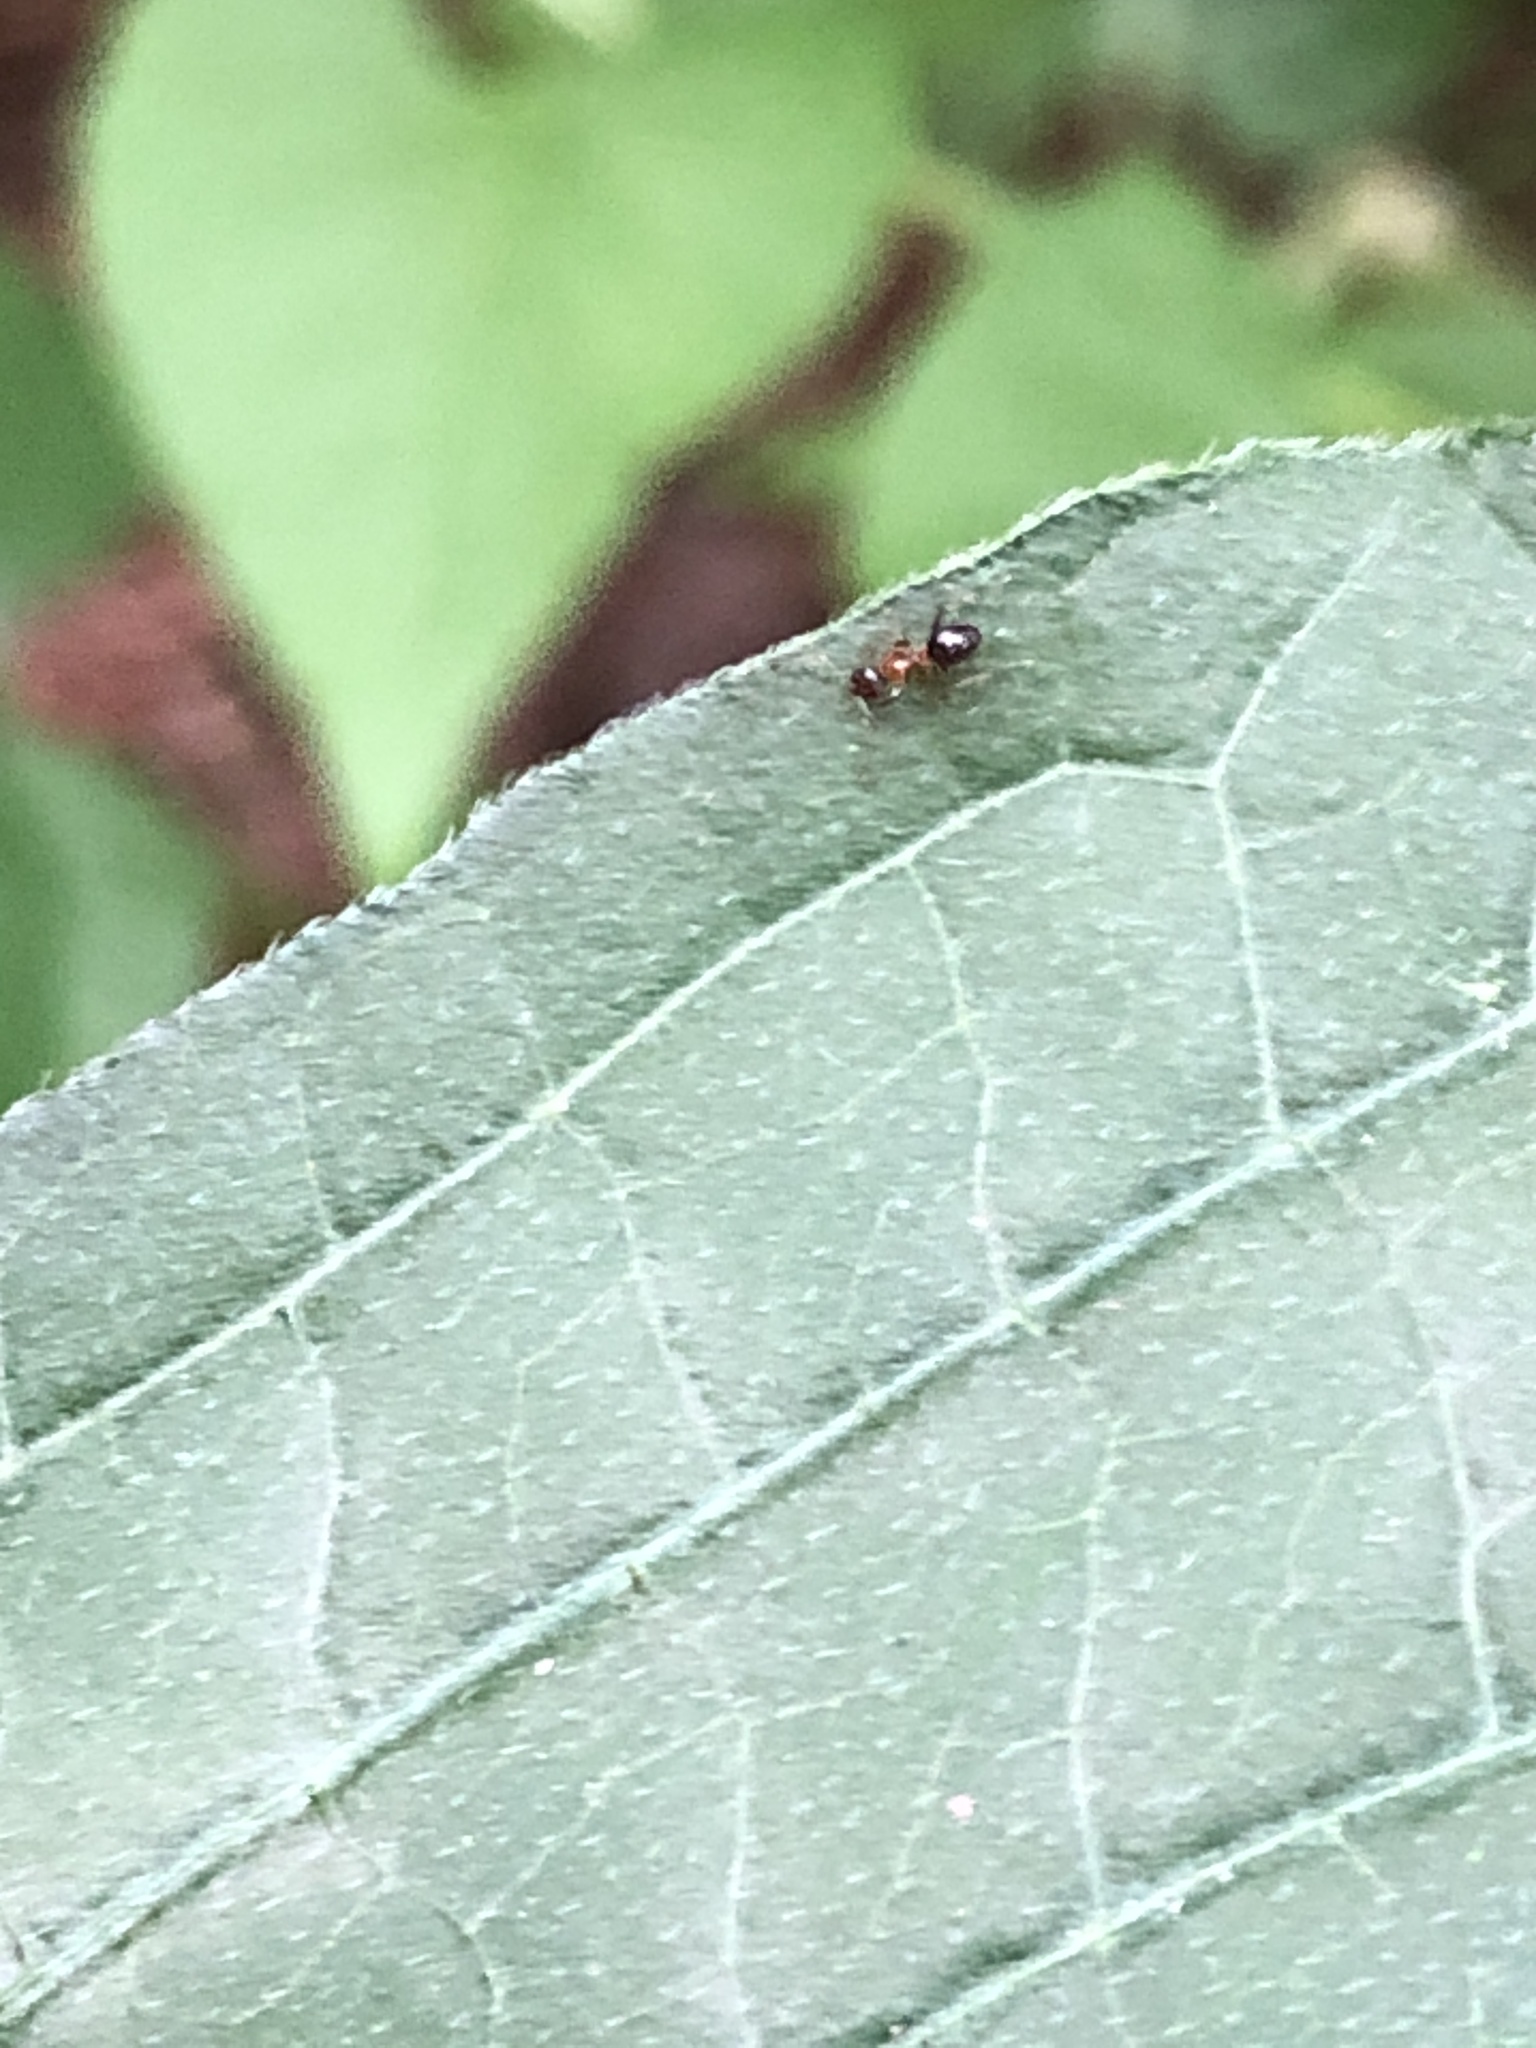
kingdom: Animalia
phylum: Arthropoda
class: Insecta
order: Hymenoptera
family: Formicidae
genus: Paratrechina
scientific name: Paratrechina flavipes
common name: Eastern asian formicine ant
